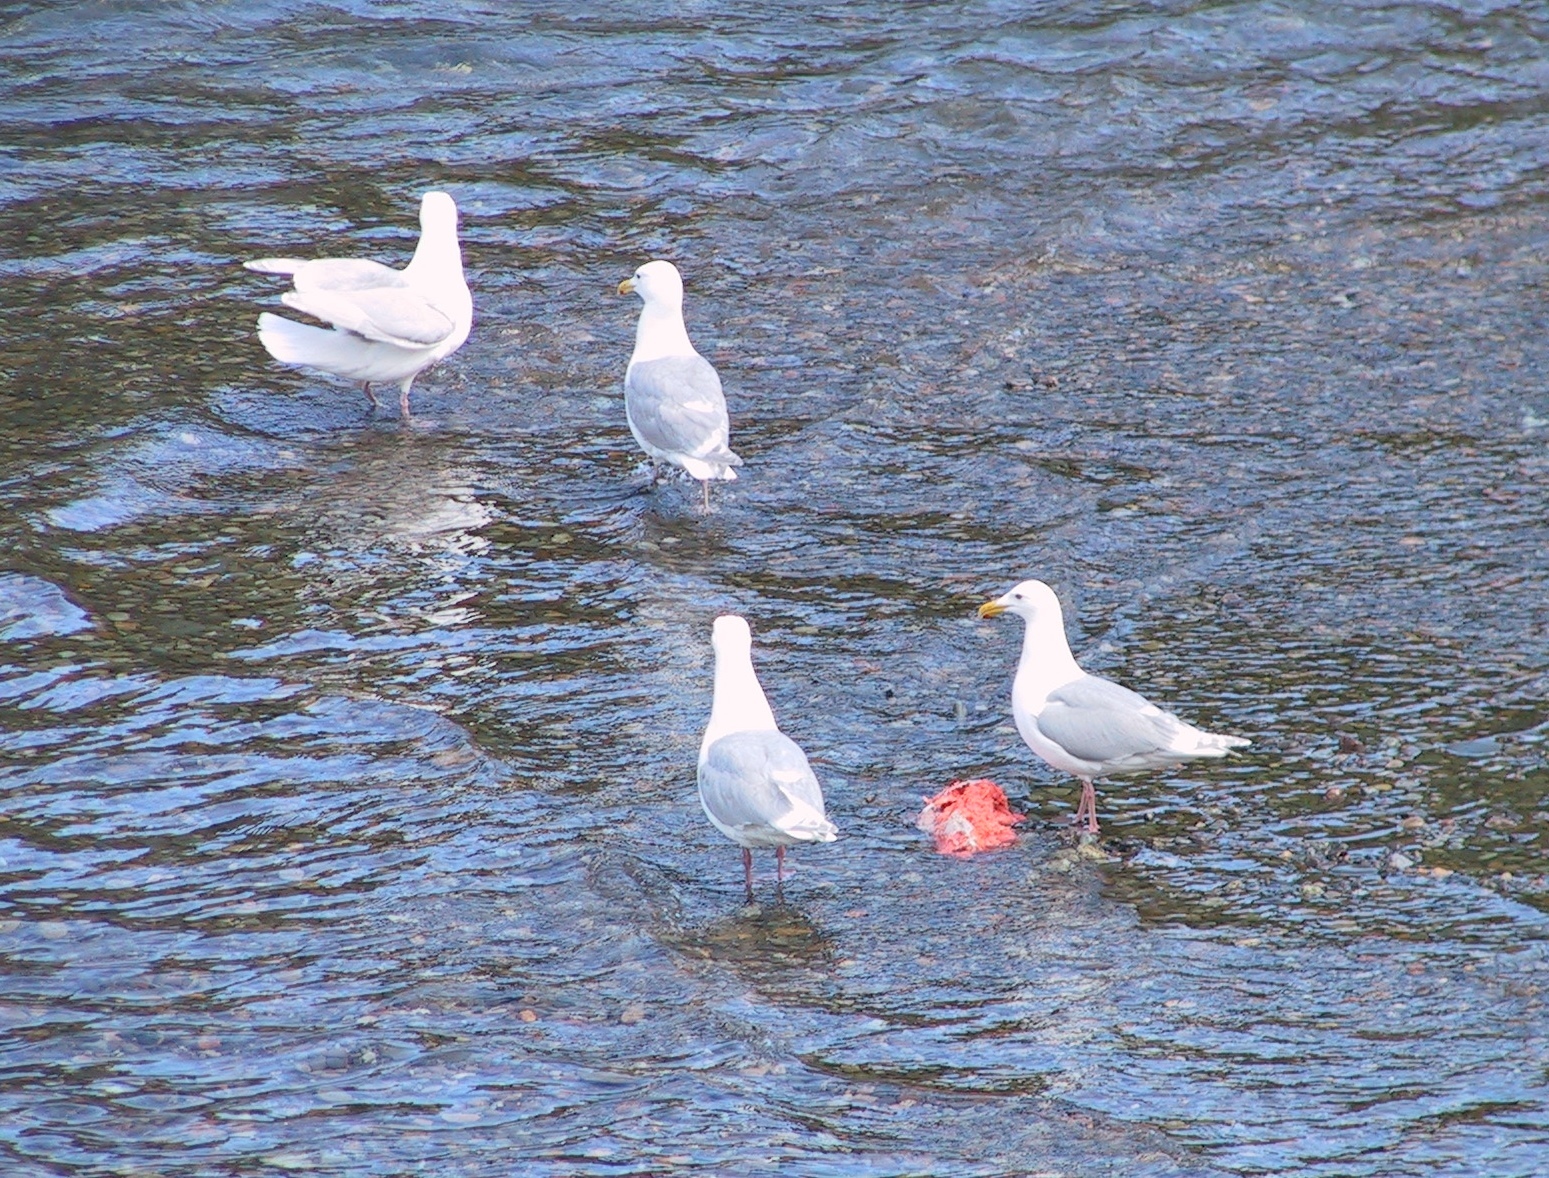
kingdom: Animalia
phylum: Chordata
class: Aves
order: Charadriiformes
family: Laridae
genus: Larus
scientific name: Larus glaucescens
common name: Glaucous-winged gull
